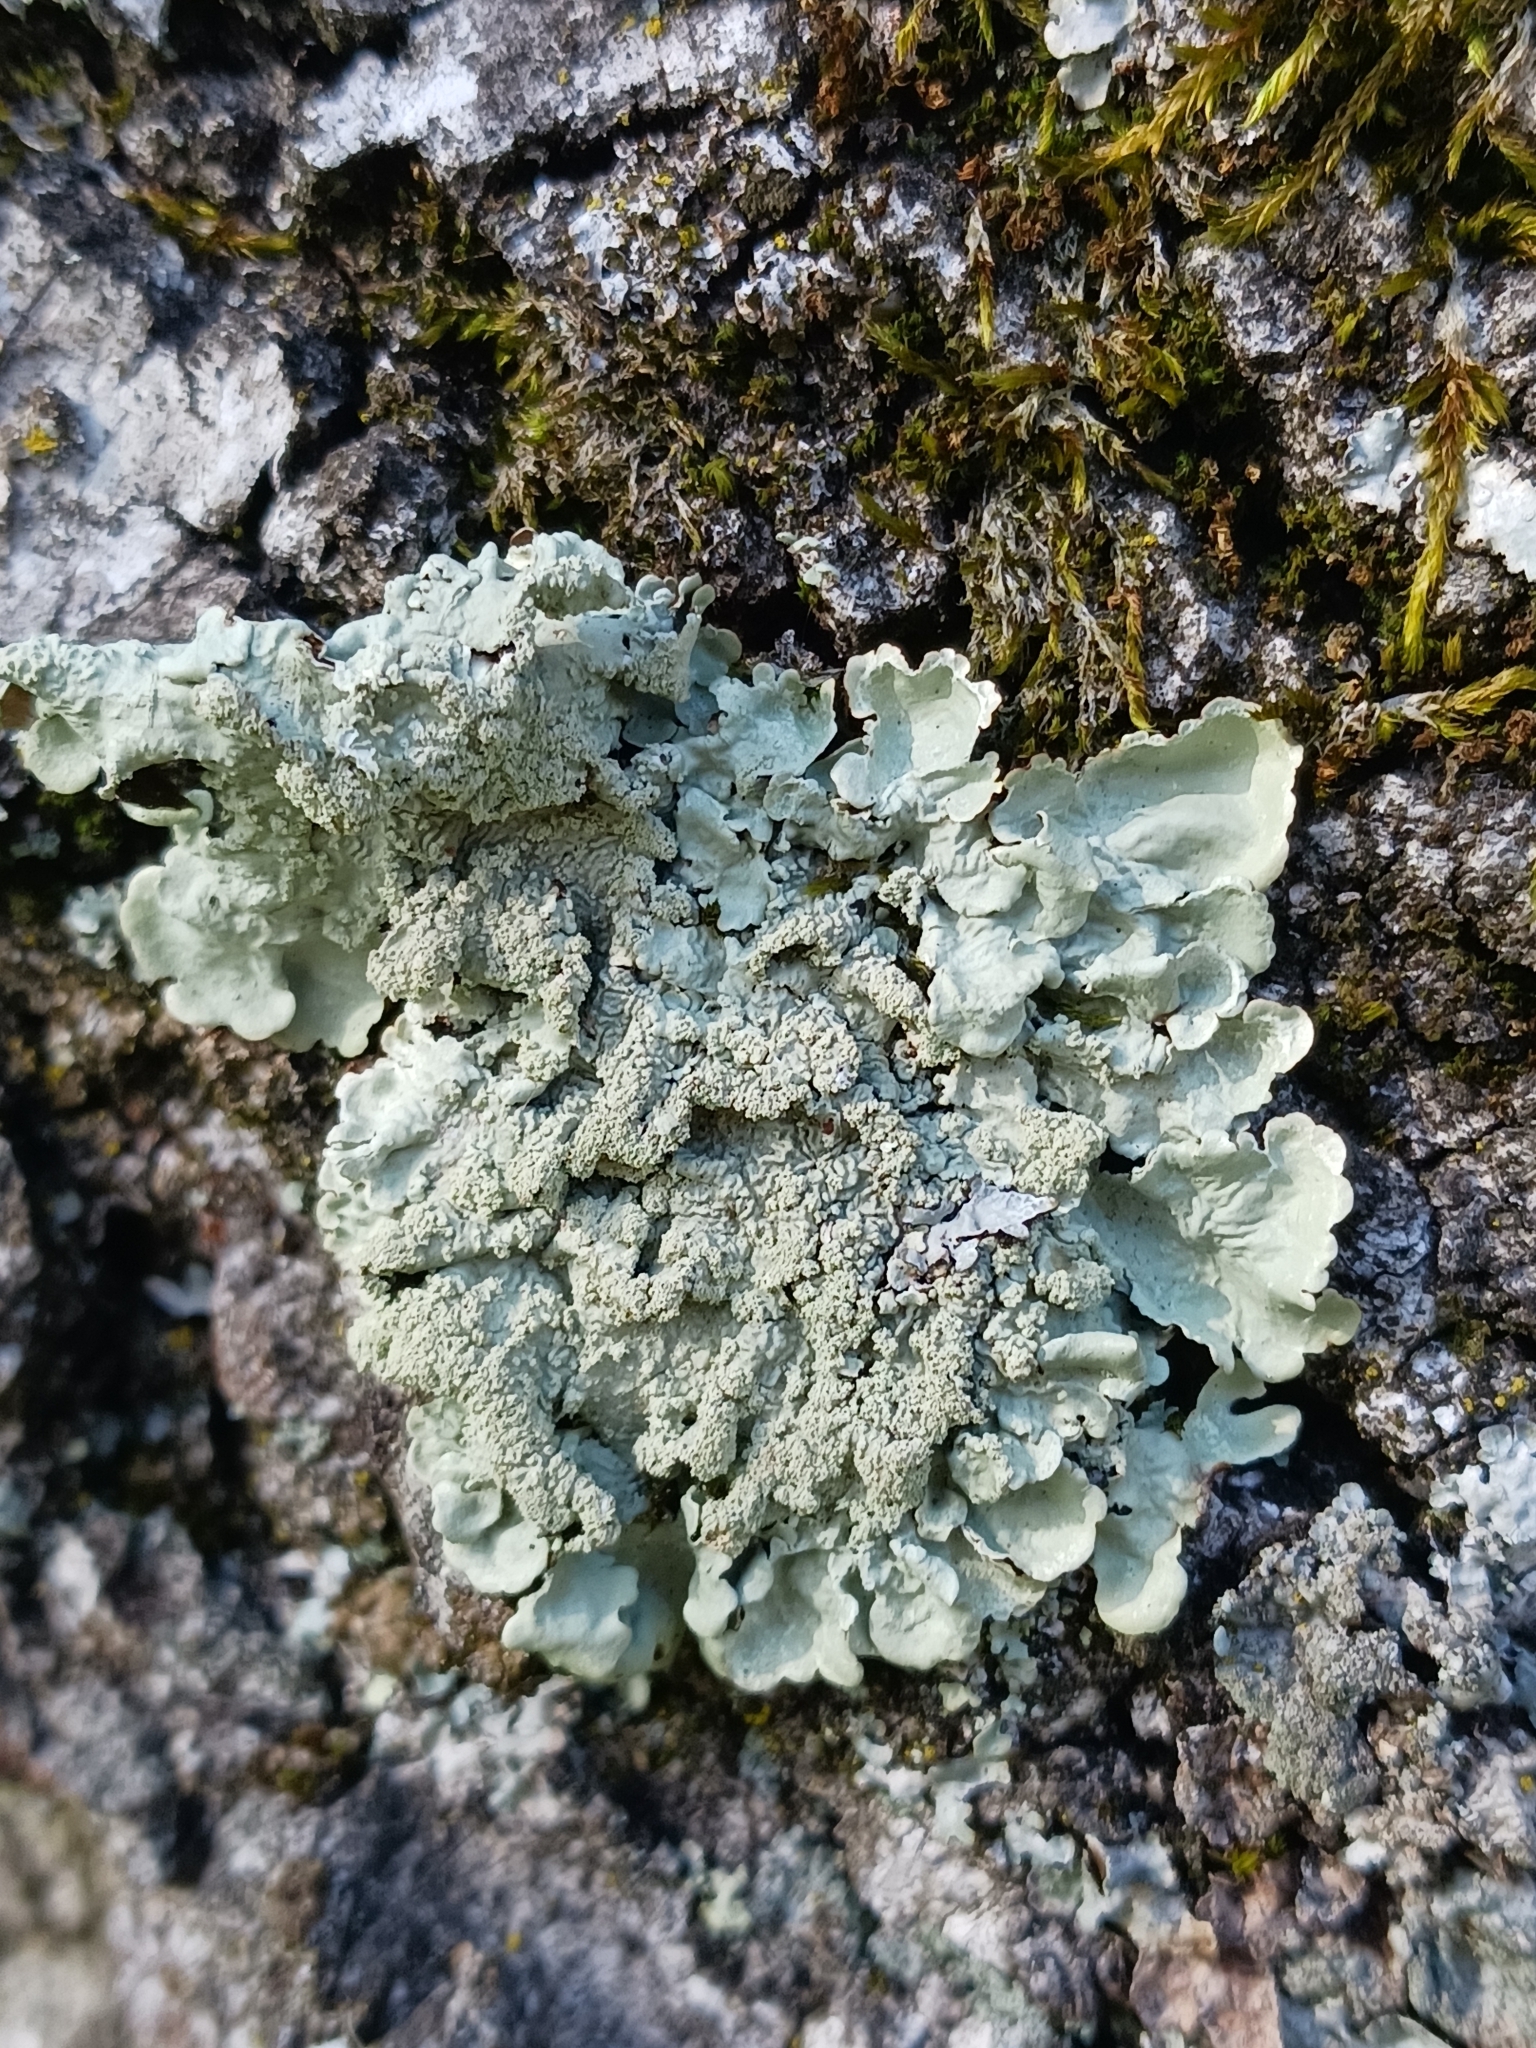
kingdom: Fungi
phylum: Ascomycota
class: Lecanoromycetes
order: Lecanorales
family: Parmeliaceae
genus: Flavoparmelia
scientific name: Flavoparmelia caperata
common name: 40-mile per hour lichen
